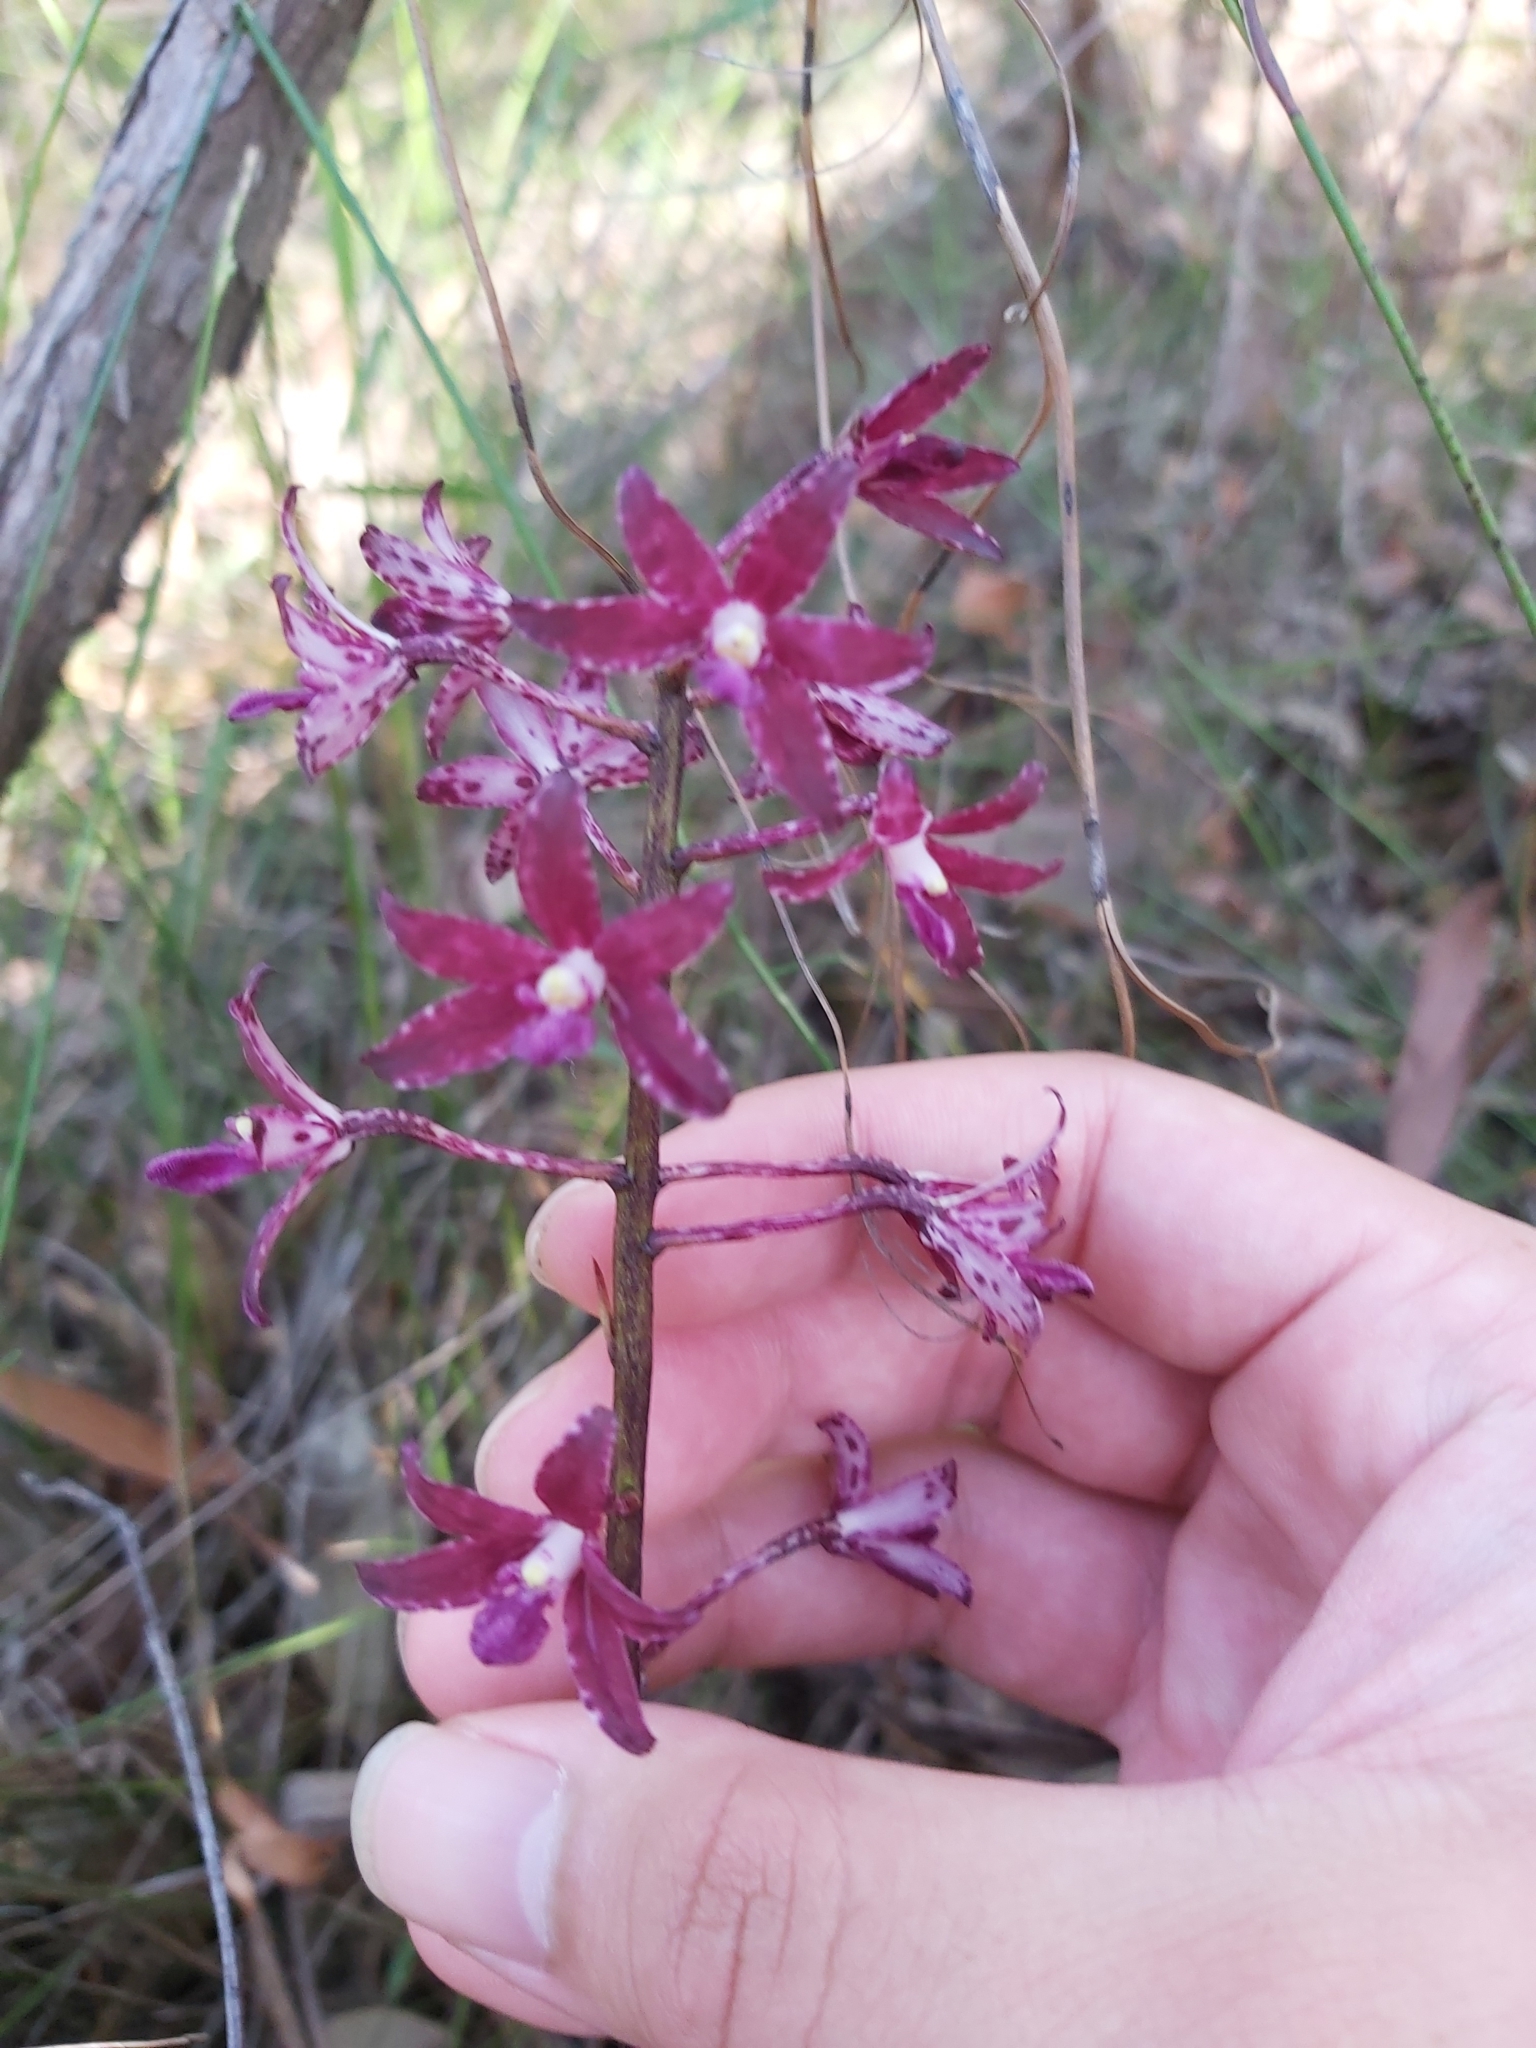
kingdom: Plantae
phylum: Tracheophyta
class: Liliopsida
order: Asparagales
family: Orchidaceae
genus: Dipodium
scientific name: Dipodium variegatum
